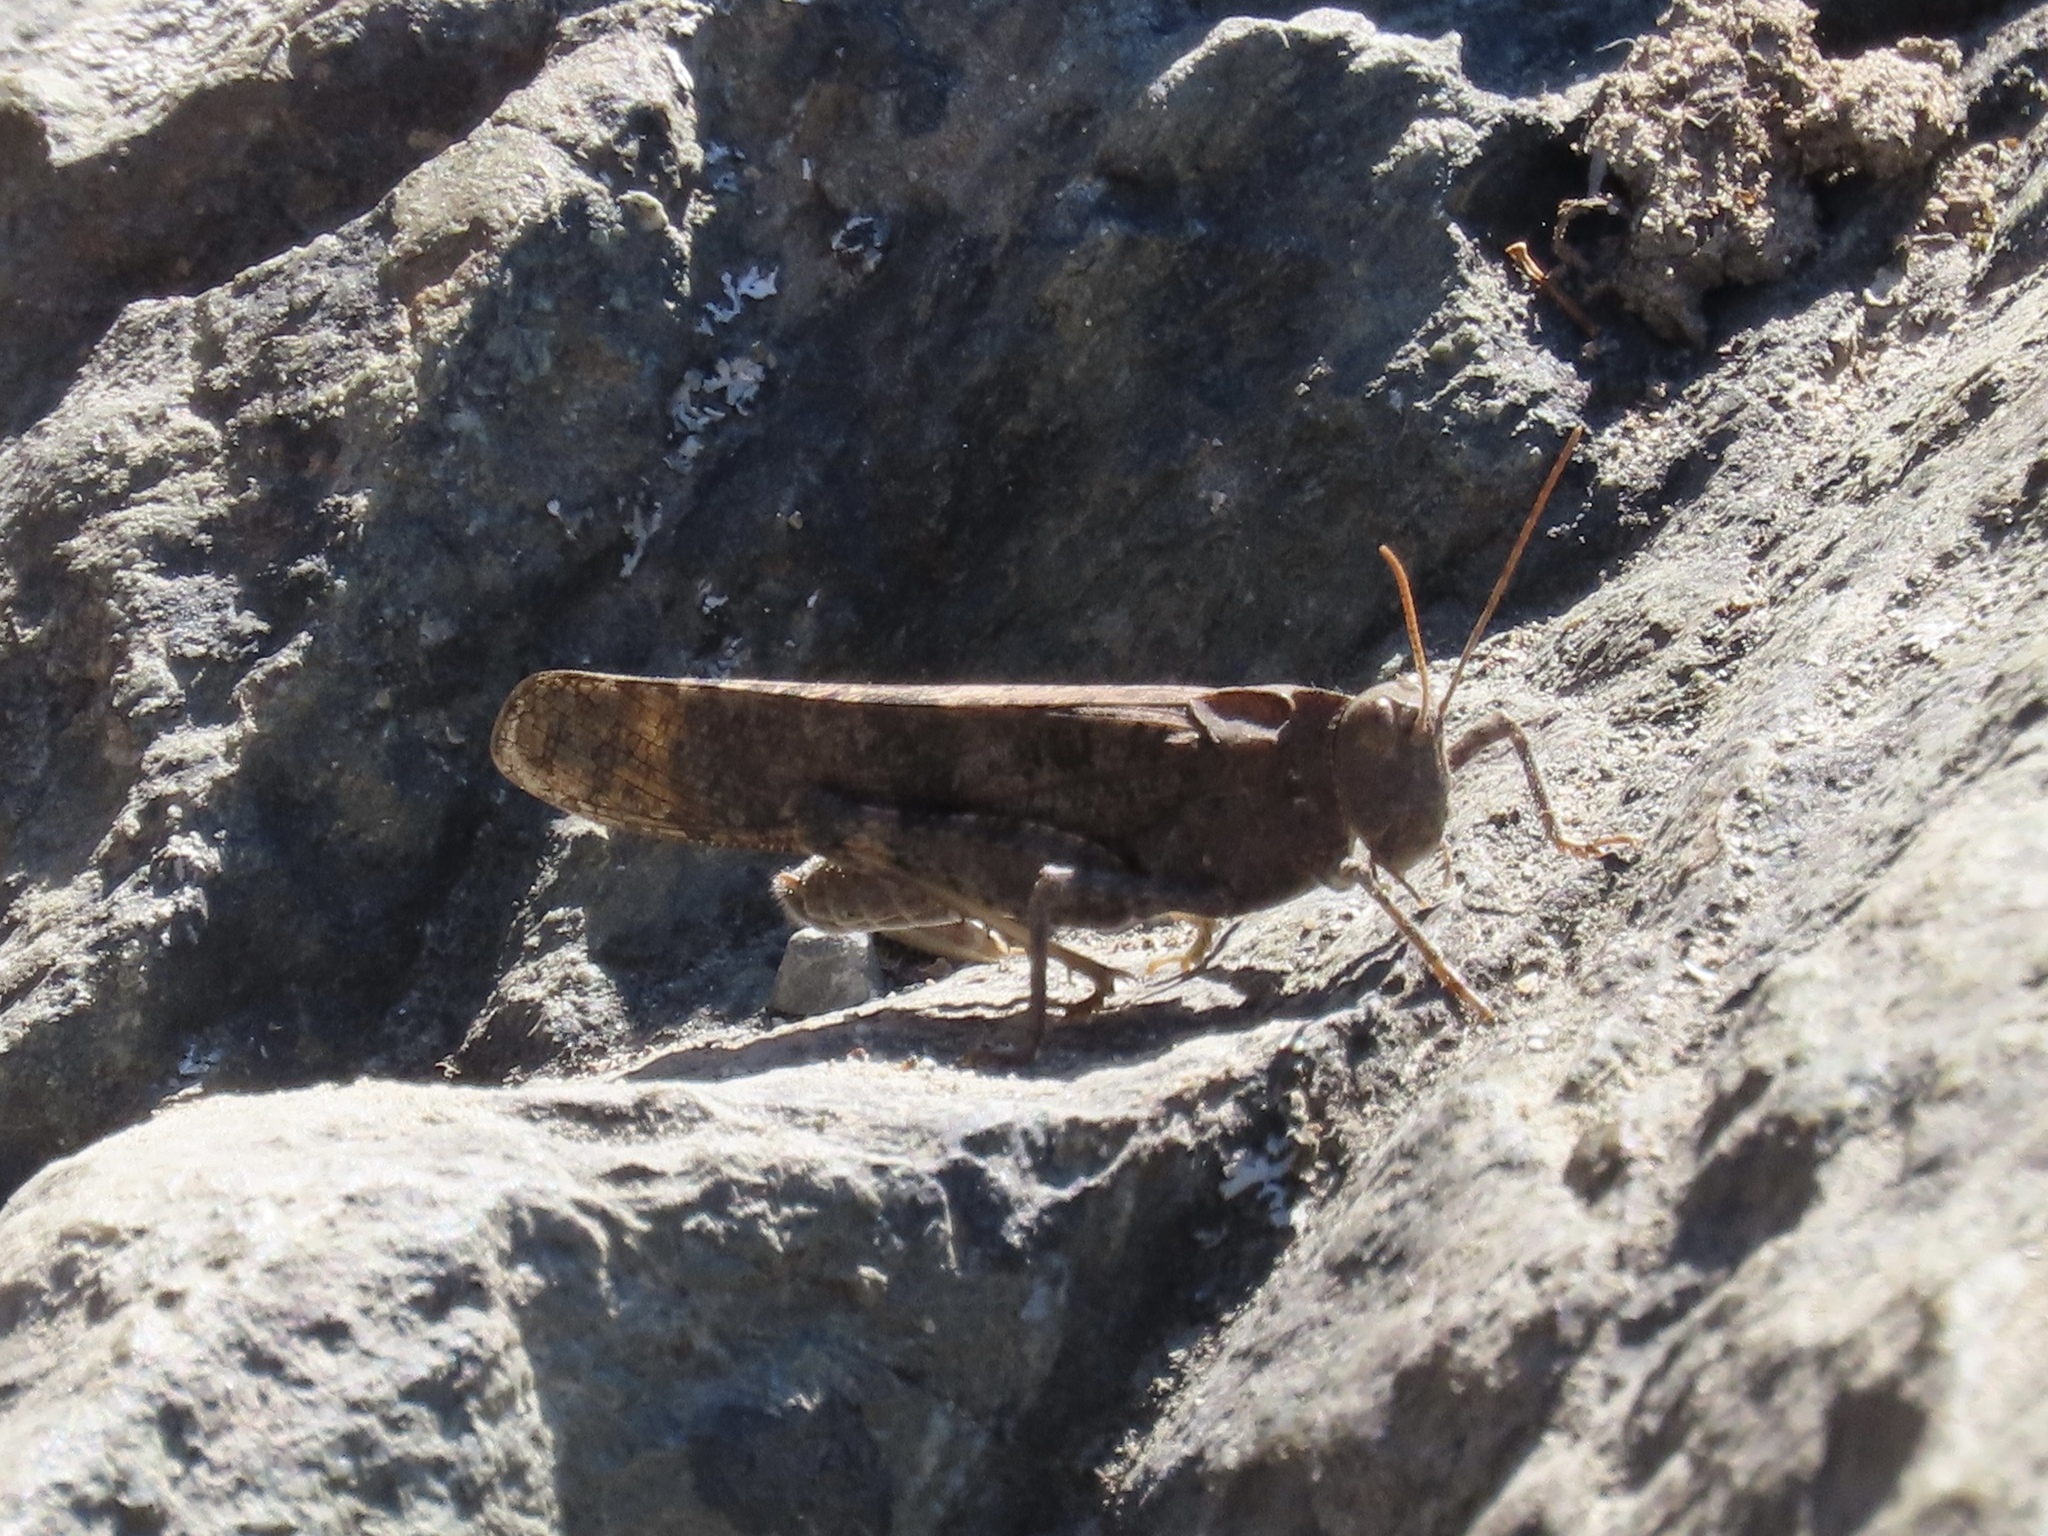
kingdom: Animalia
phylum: Arthropoda
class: Insecta
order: Orthoptera
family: Acrididae
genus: Dissosteira
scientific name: Dissosteira carolina
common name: Carolina grasshopper
